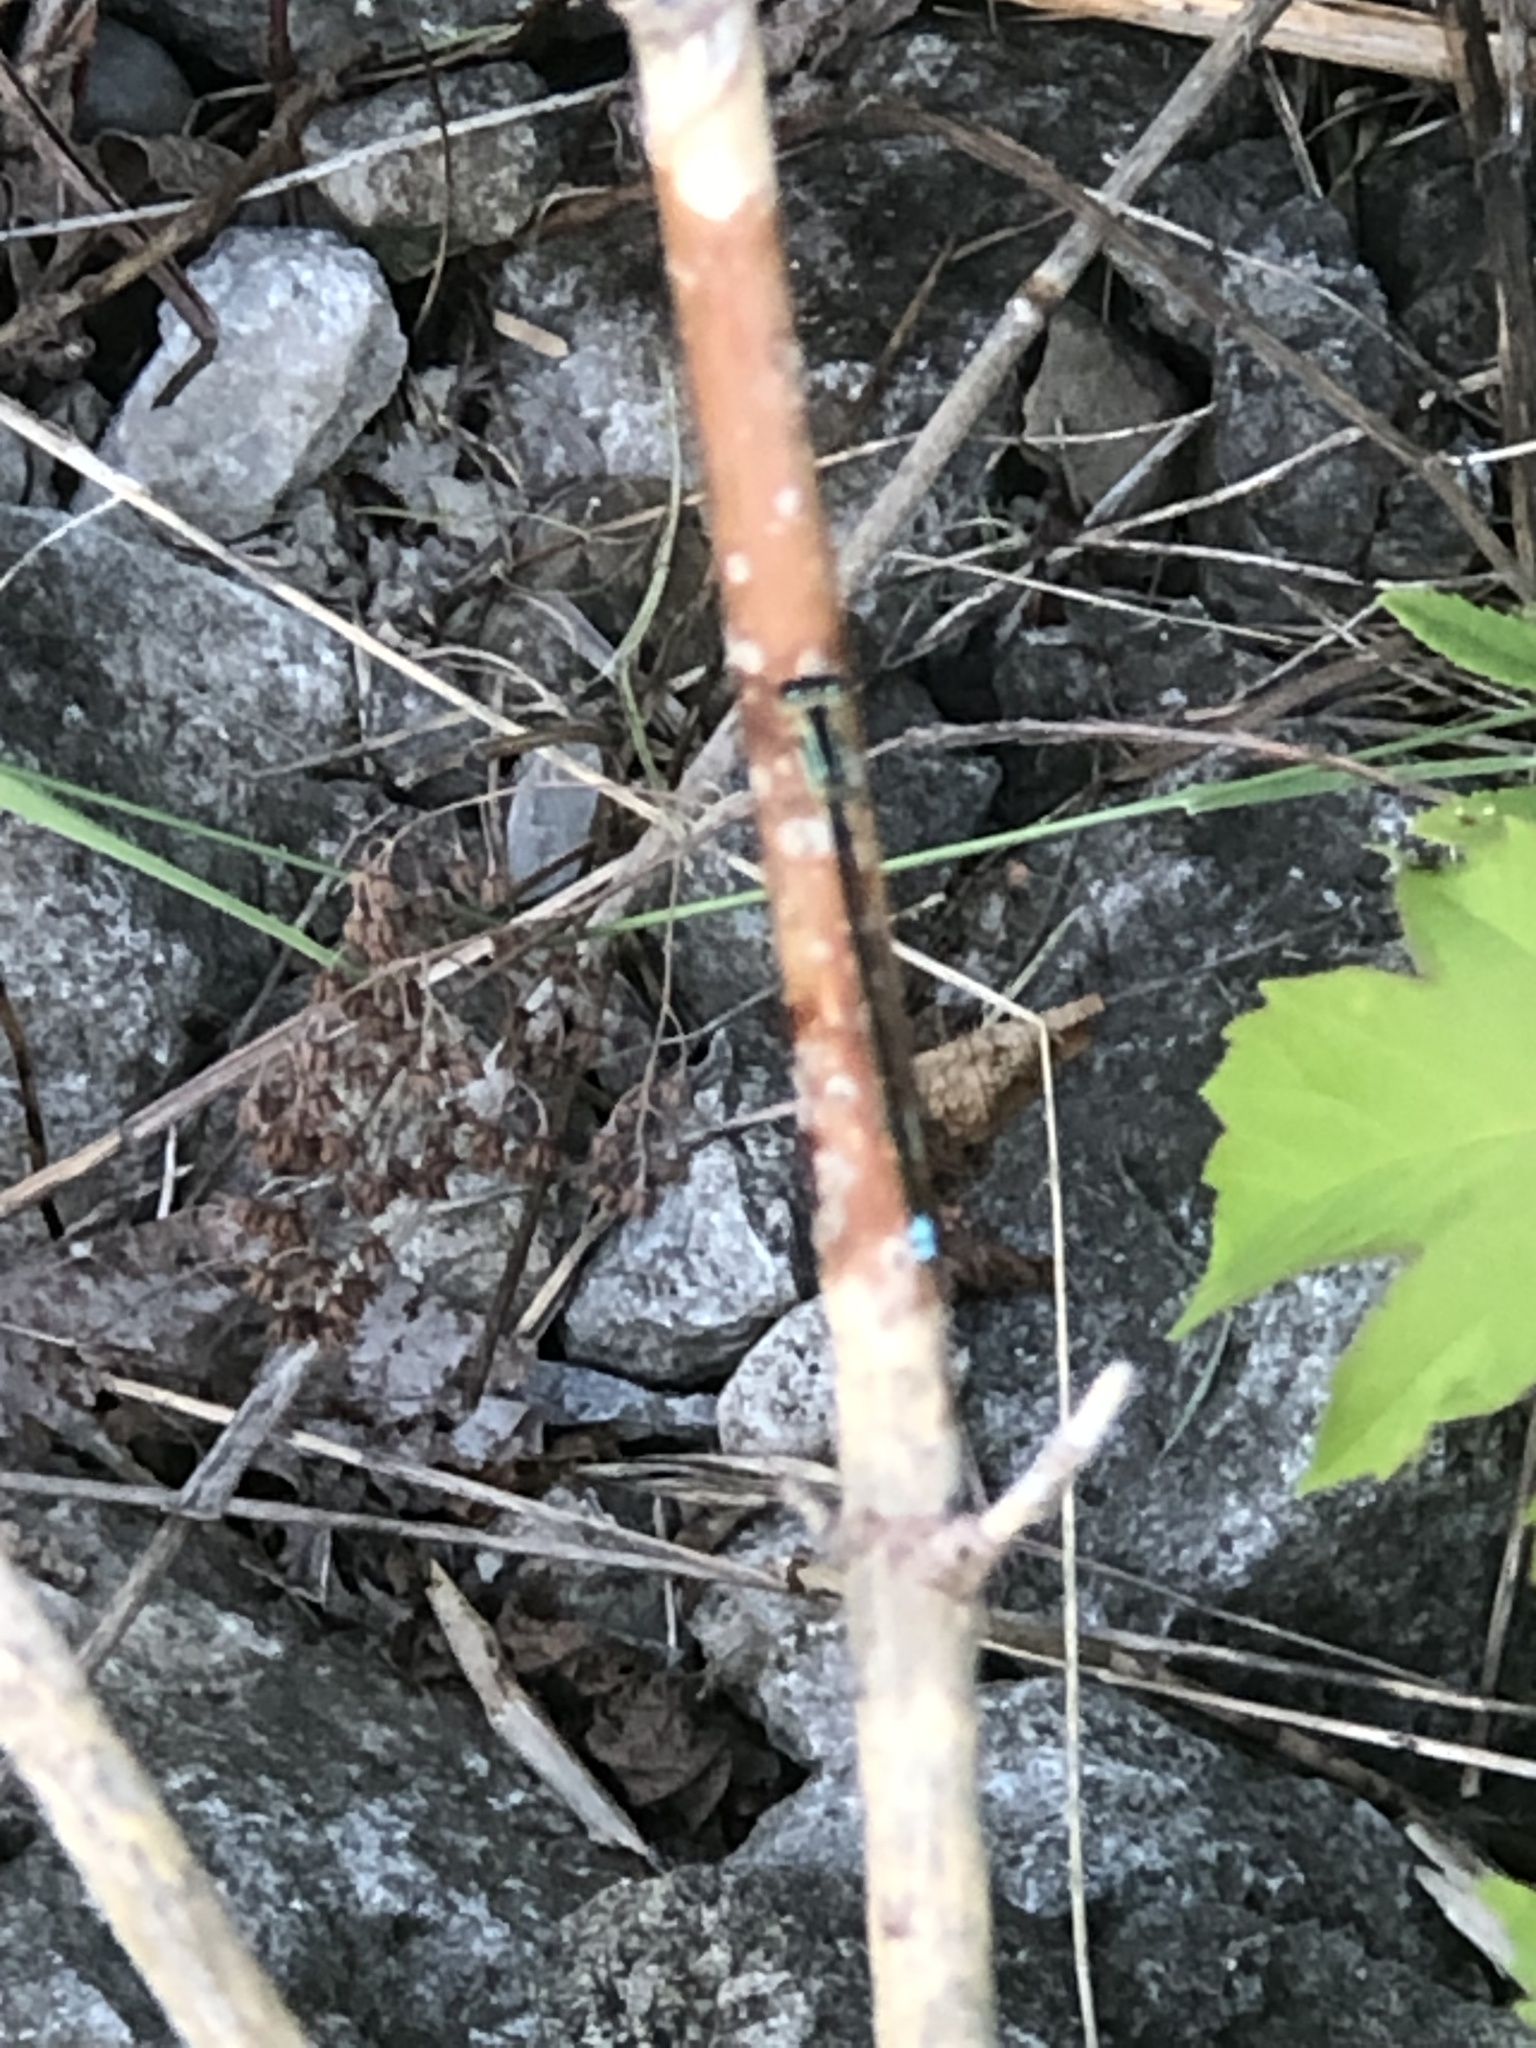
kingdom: Animalia
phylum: Arthropoda
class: Insecta
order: Odonata
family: Coenagrionidae
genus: Ischnura
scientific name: Ischnura verticalis
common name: Eastern forktail
